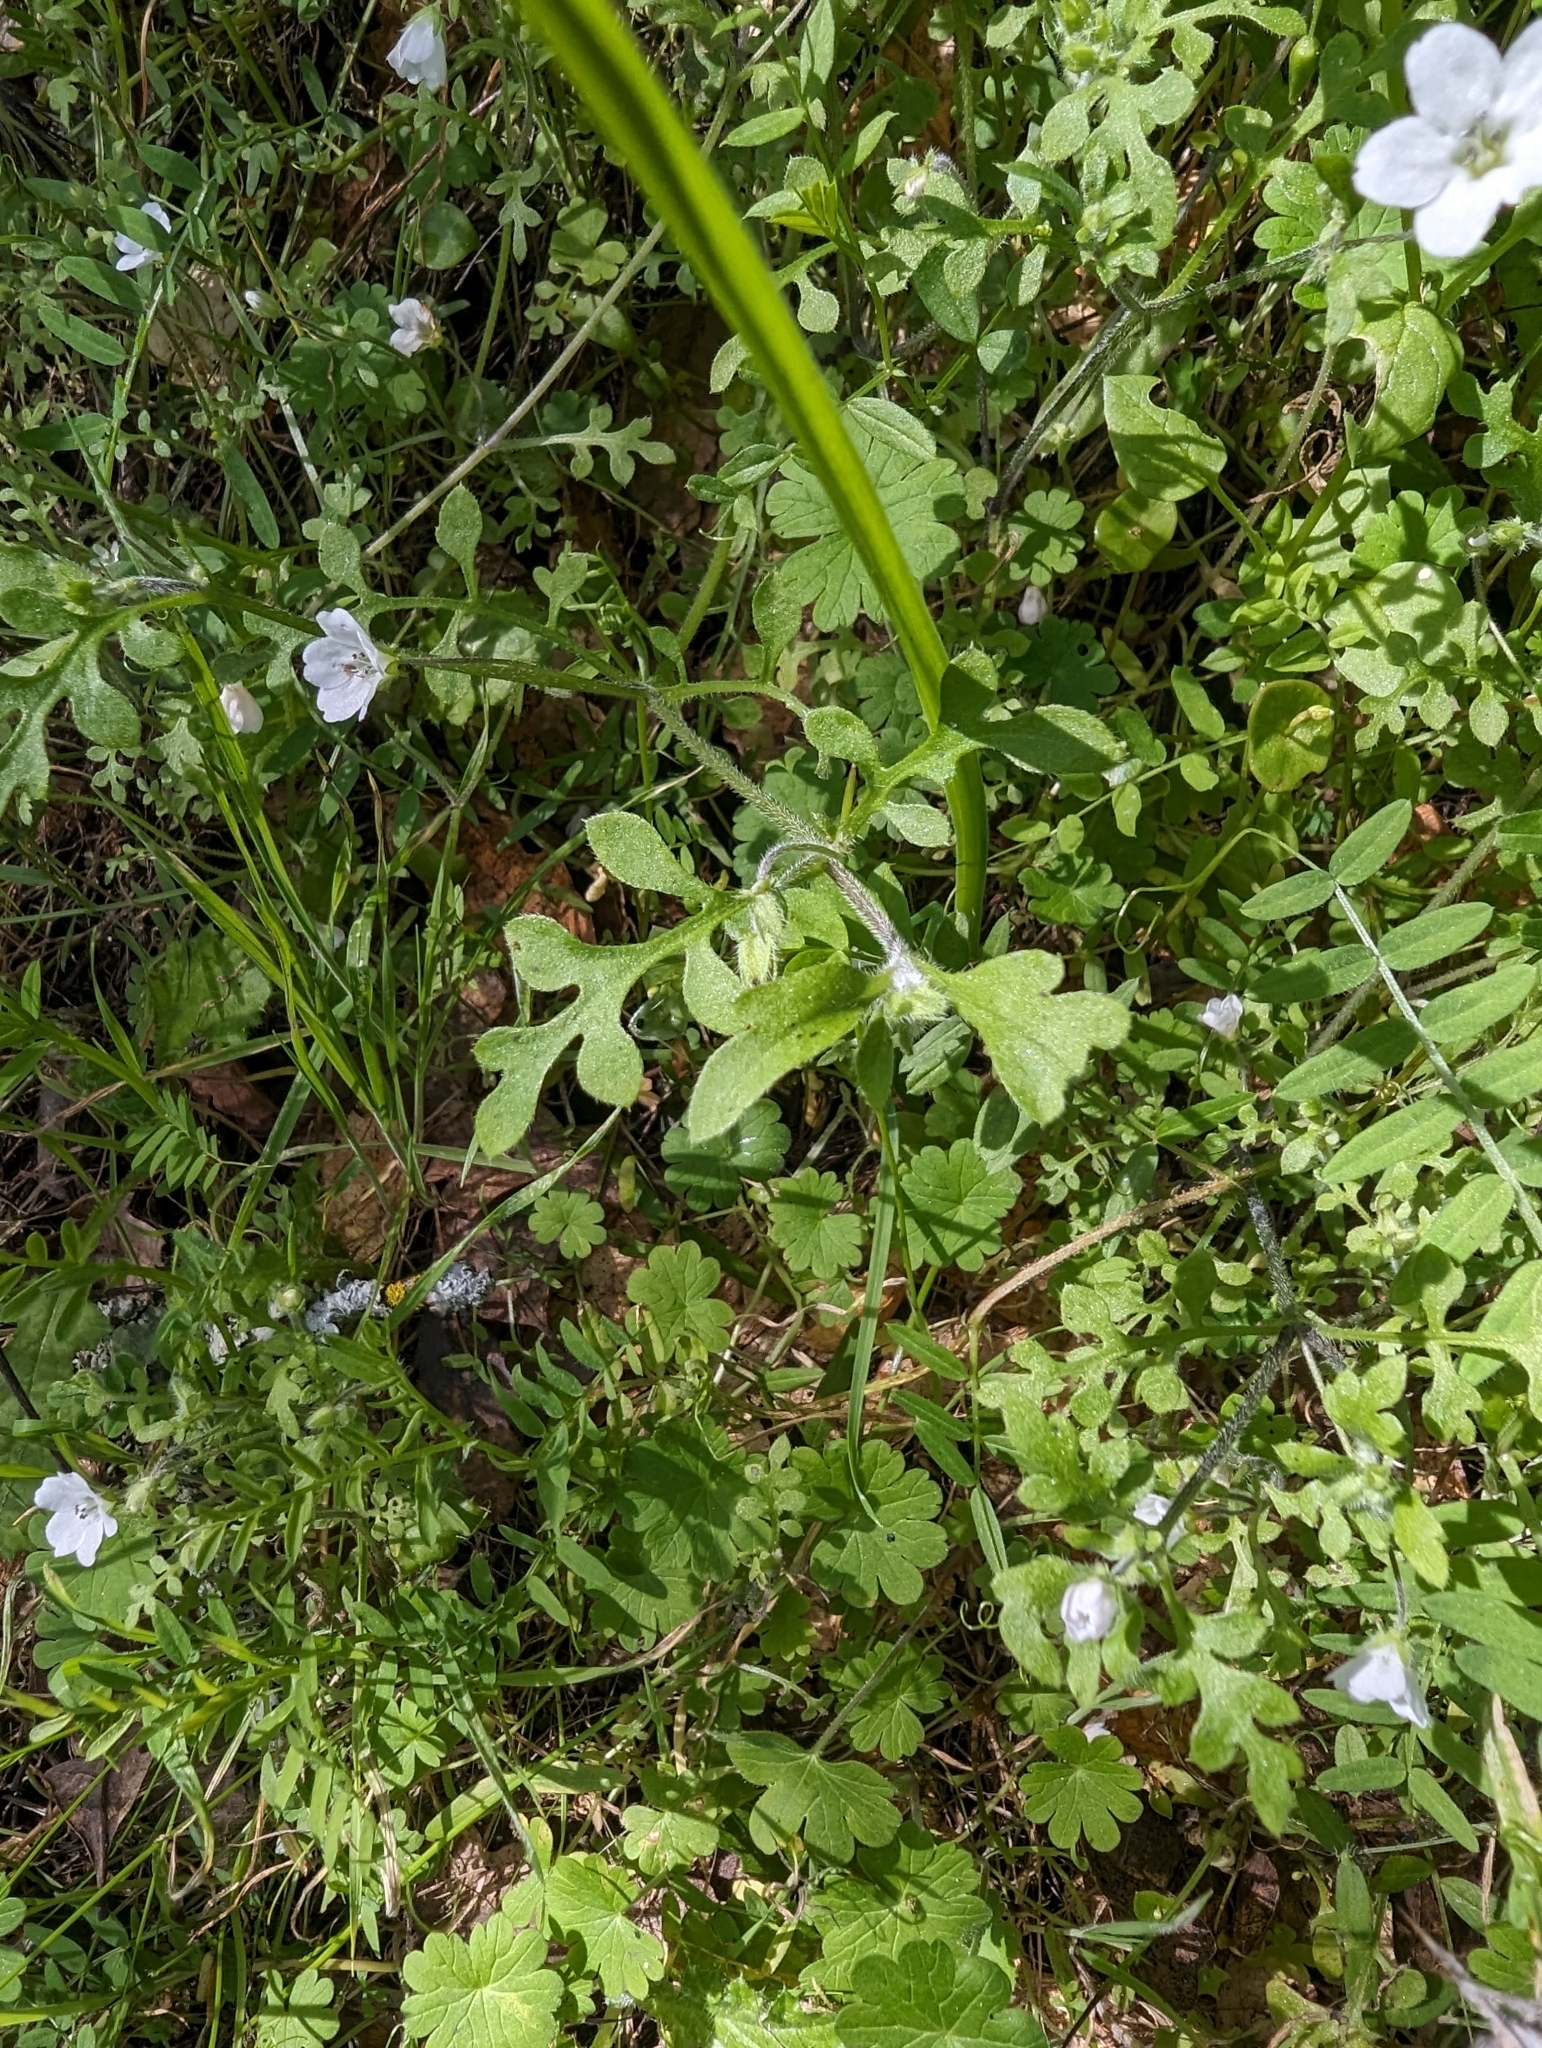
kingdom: Plantae
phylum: Tracheophyta
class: Magnoliopsida
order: Boraginales
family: Hydrophyllaceae
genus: Nemophila
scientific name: Nemophila heterophylla
